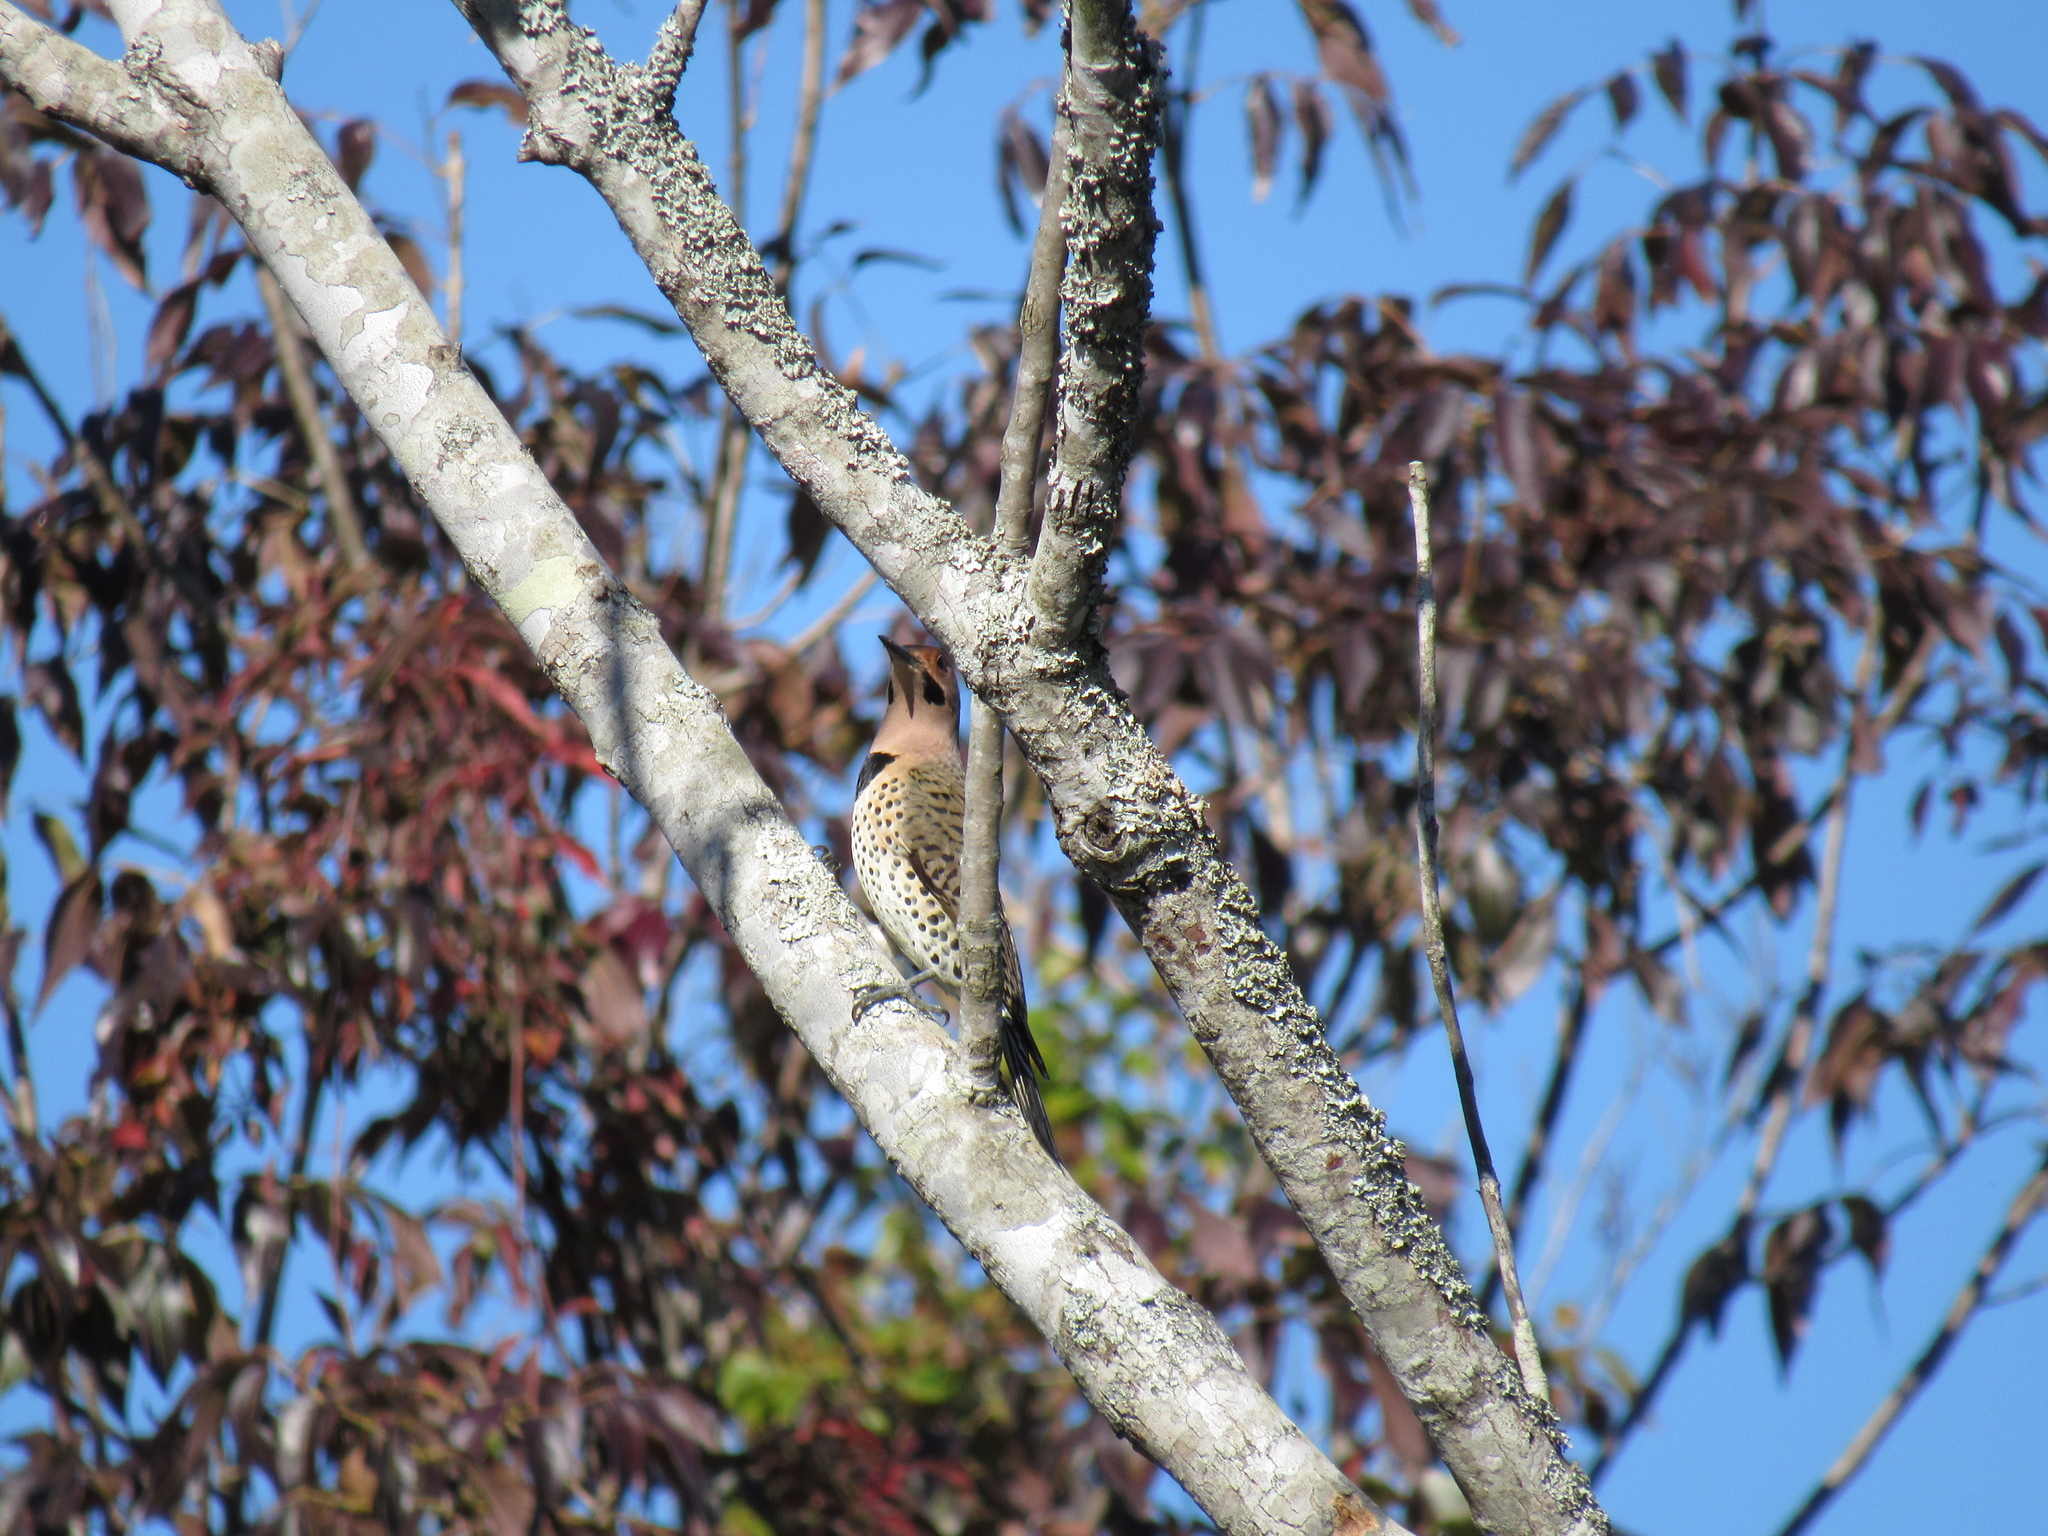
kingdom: Animalia
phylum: Chordata
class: Aves
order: Piciformes
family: Picidae
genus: Colaptes
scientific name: Colaptes auratus
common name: Northern flicker
